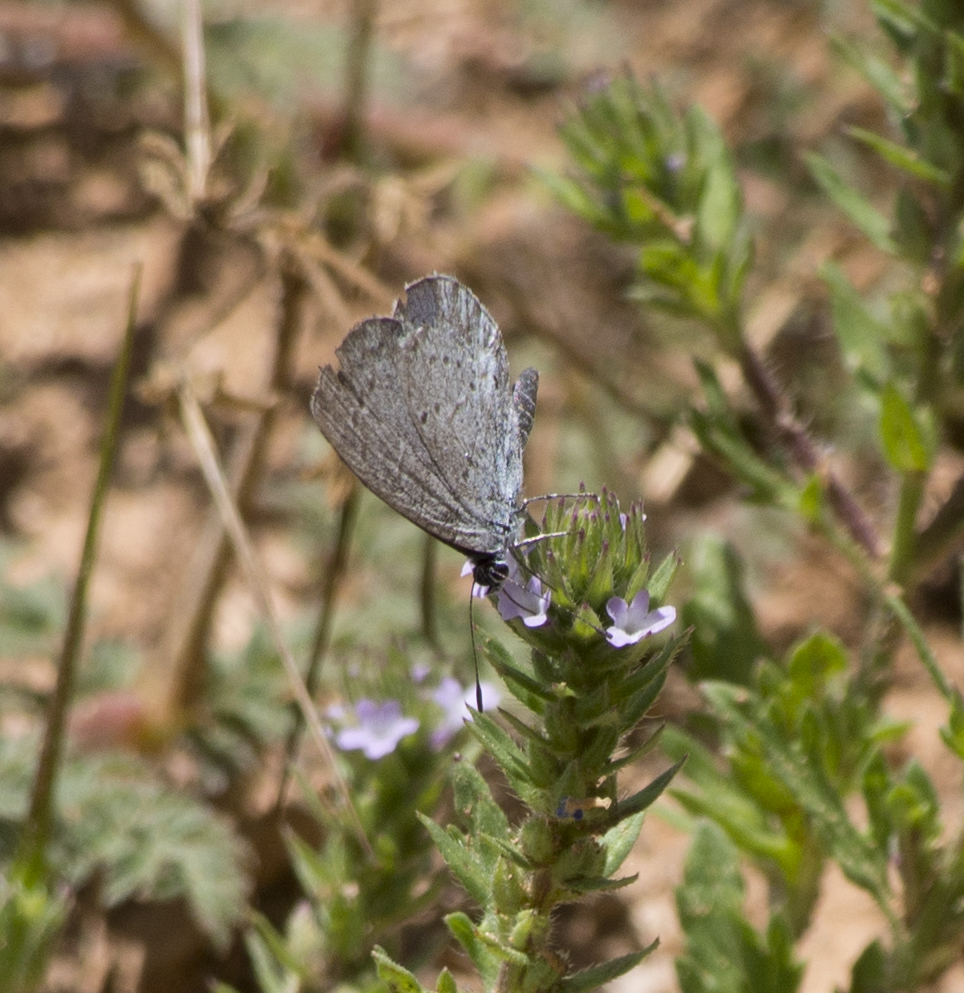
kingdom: Animalia
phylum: Arthropoda
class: Insecta
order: Lepidoptera
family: Lycaenidae
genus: Celastrina
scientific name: Celastrina argiolus
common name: Holly blue
